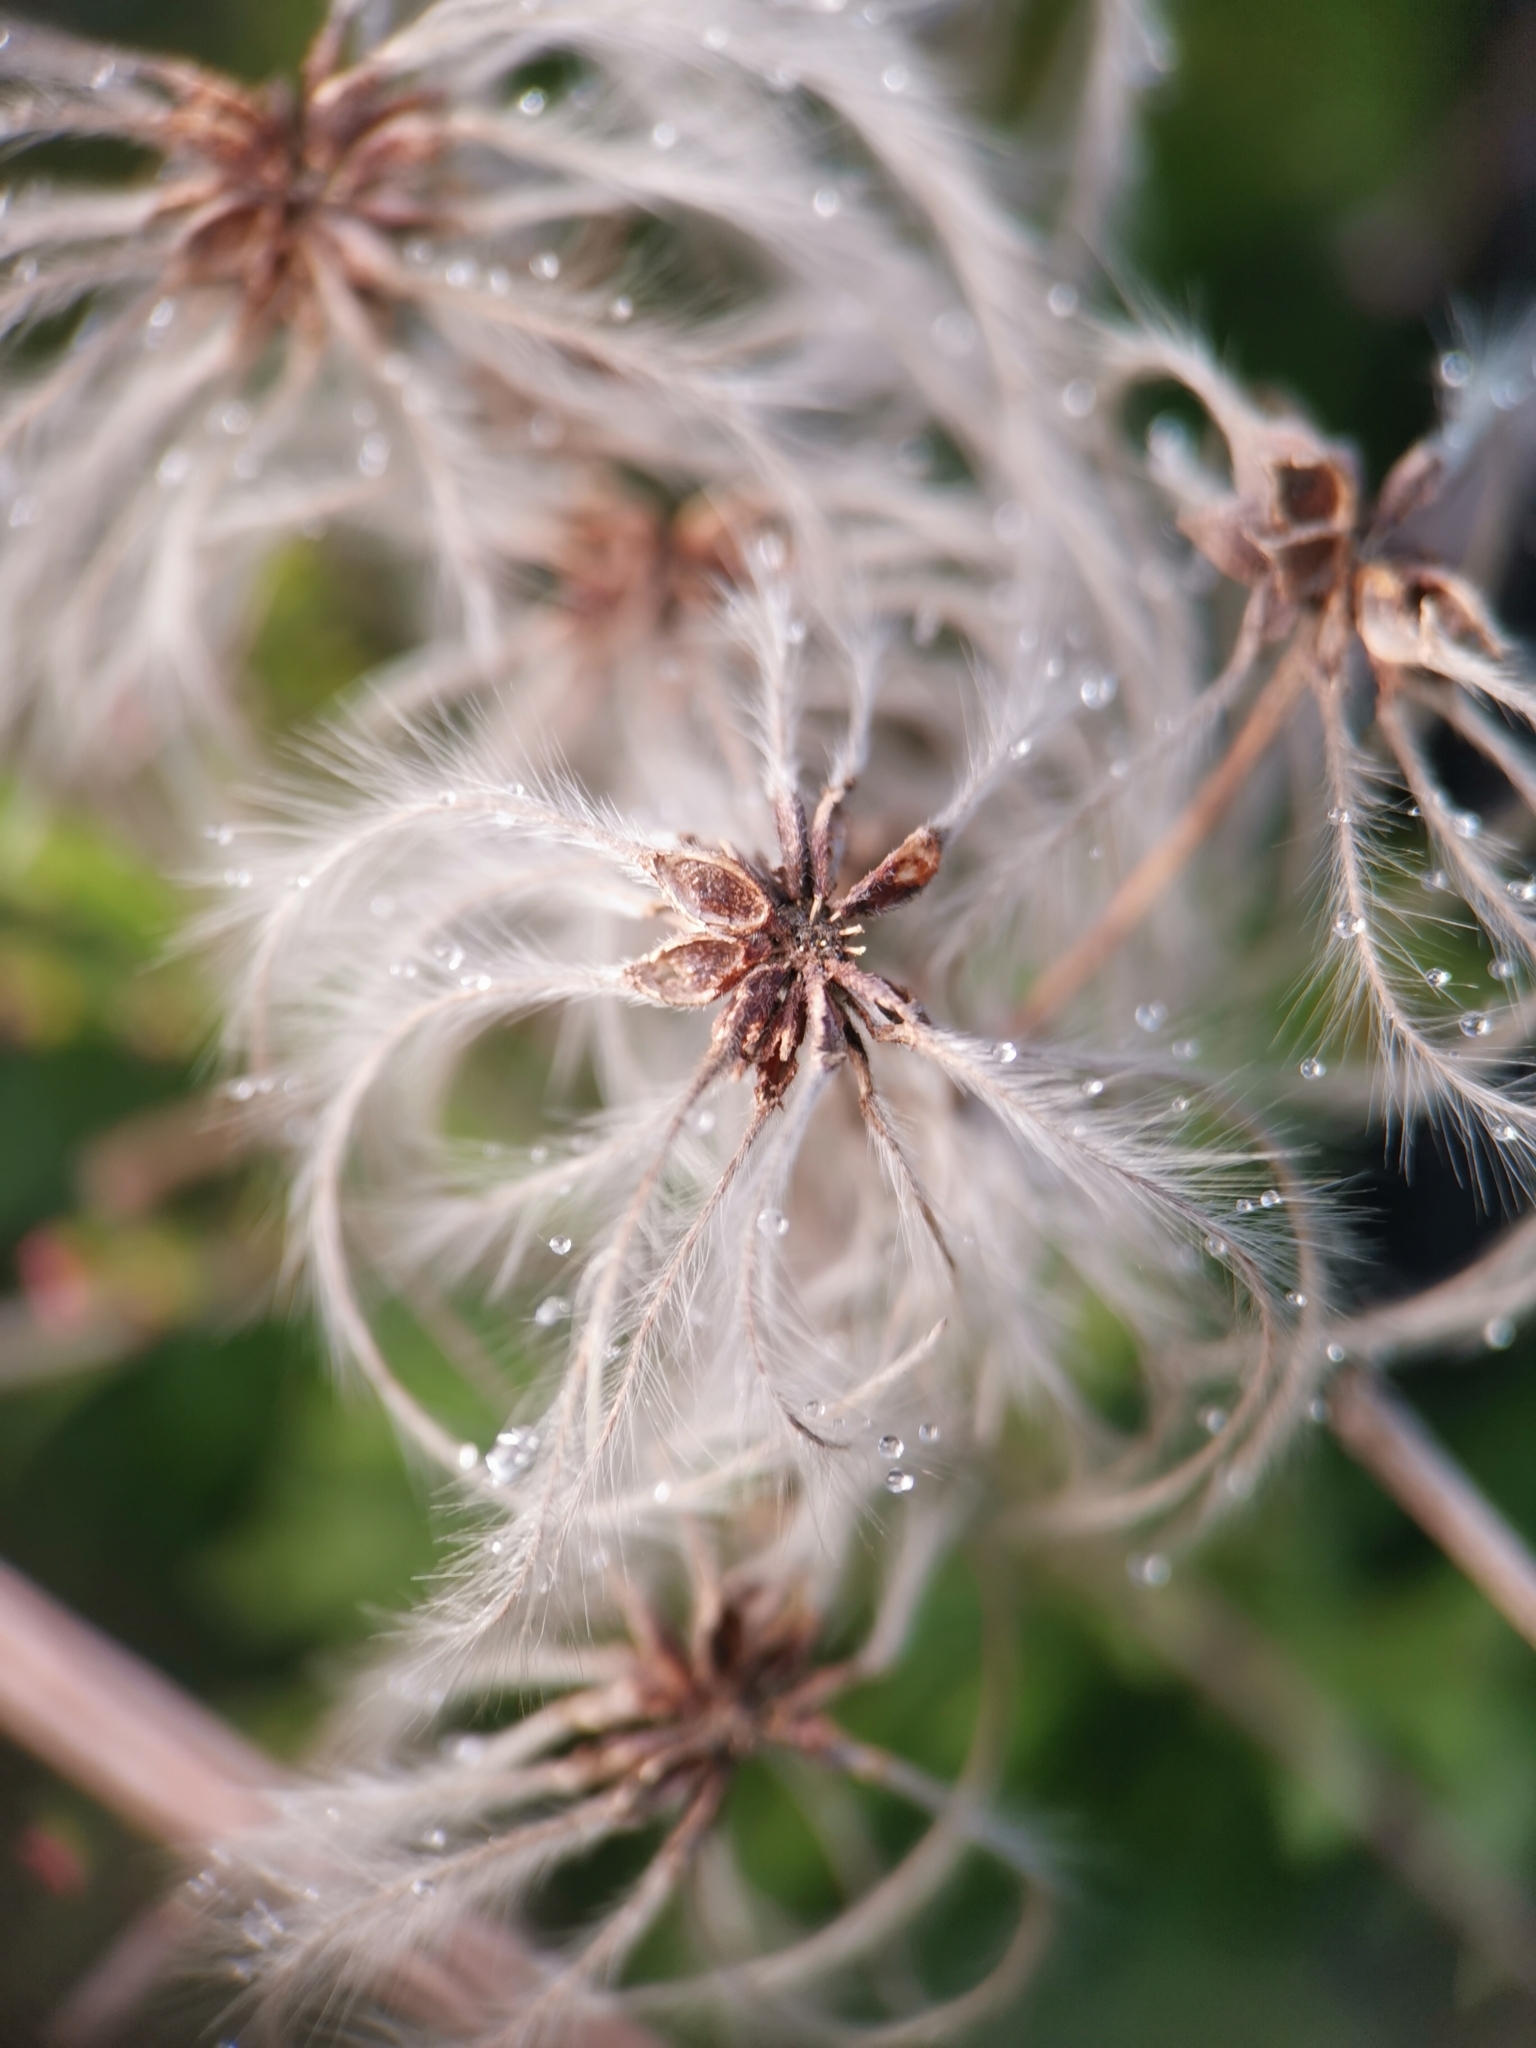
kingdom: Plantae
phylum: Tracheophyta
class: Magnoliopsida
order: Ranunculales
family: Ranunculaceae
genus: Clematis
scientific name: Clematis vitalba
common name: Evergreen clematis
